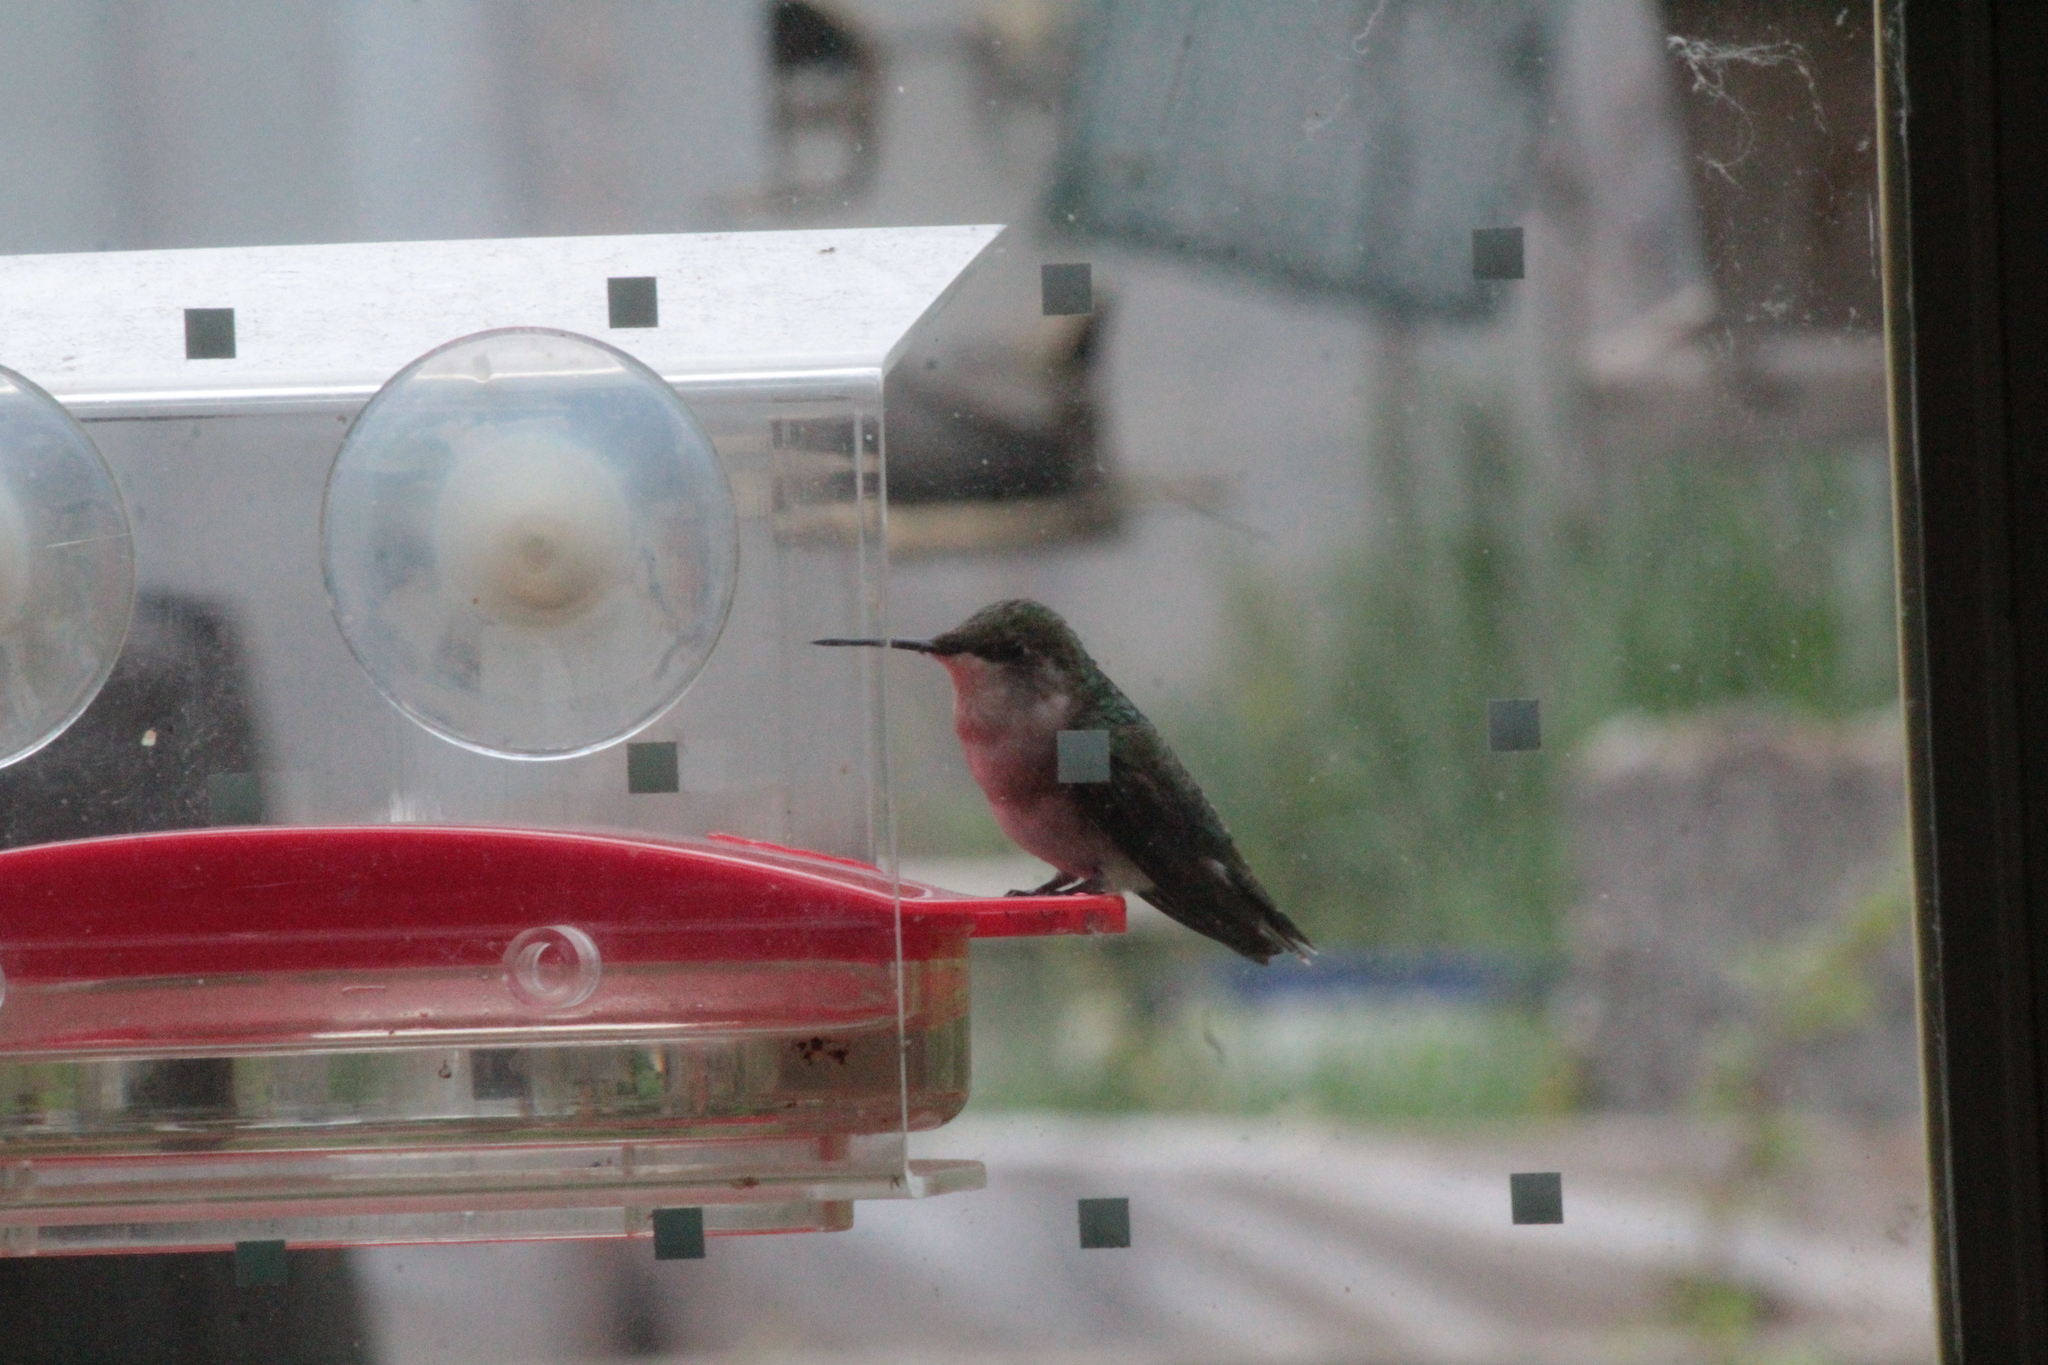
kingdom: Animalia
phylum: Chordata
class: Aves
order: Apodiformes
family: Trochilidae
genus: Archilochus
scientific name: Archilochus colubris
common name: Ruby-throated hummingbird
